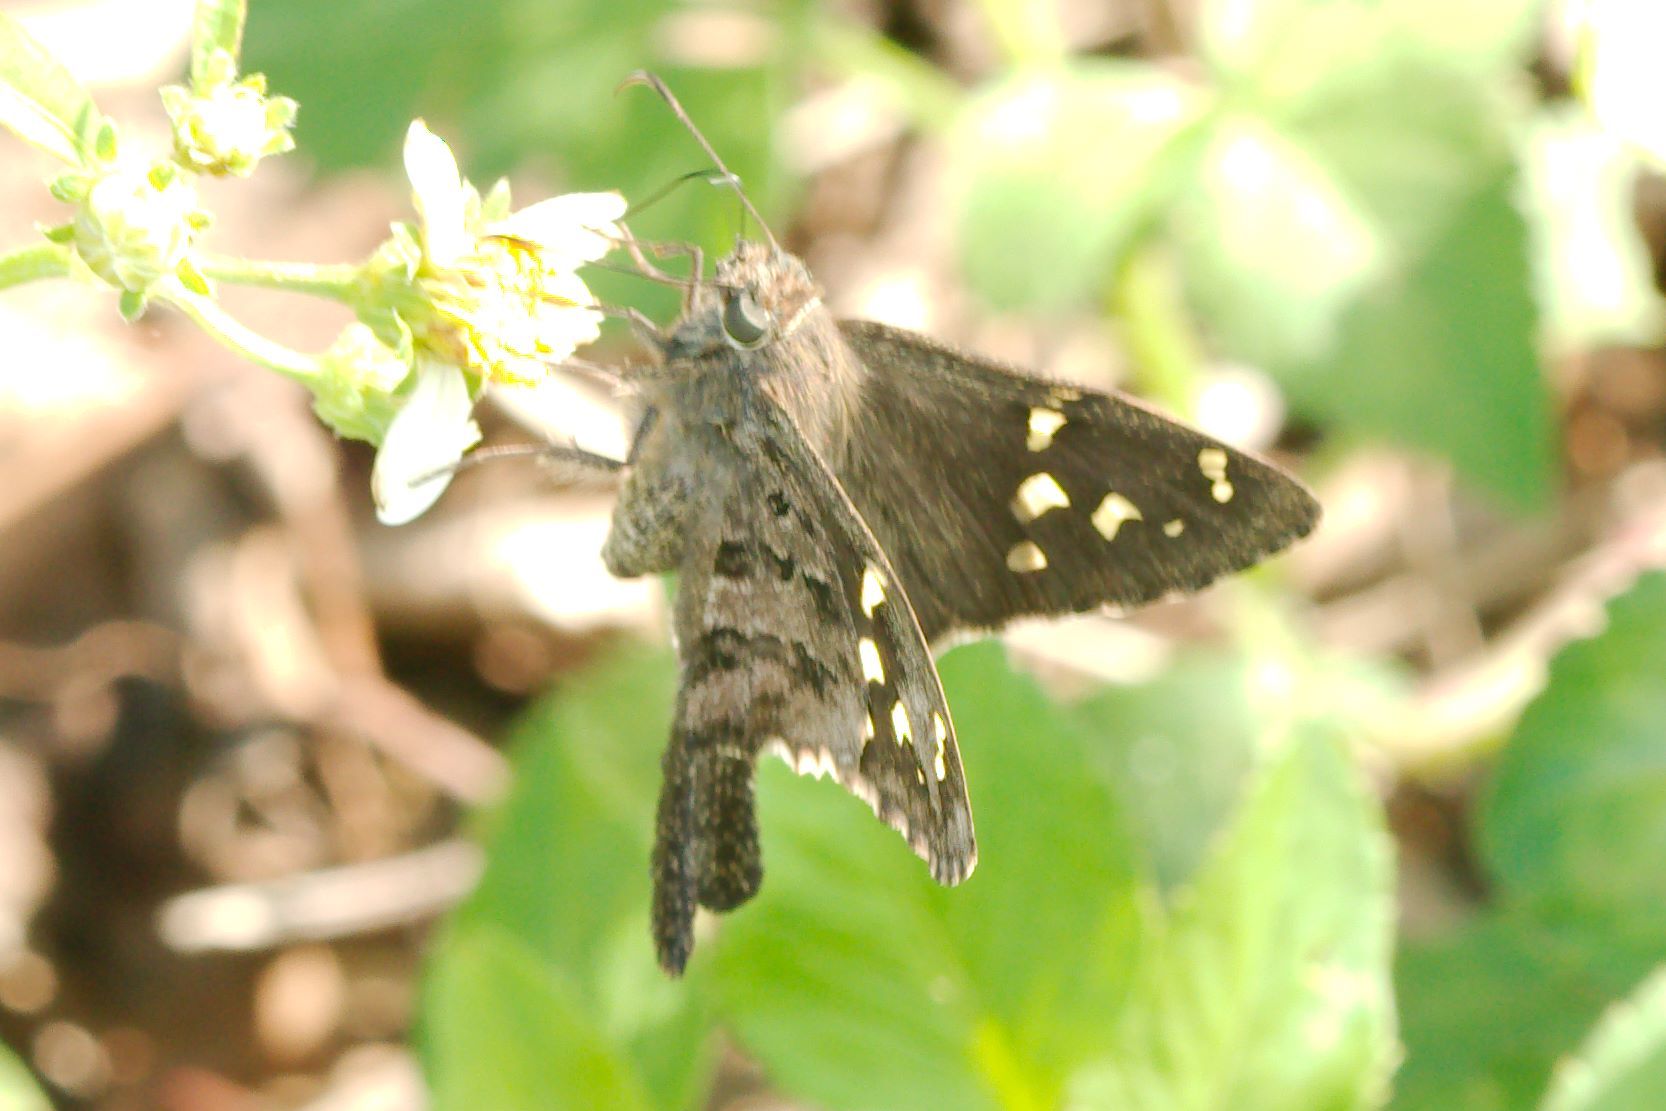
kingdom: Animalia
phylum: Arthropoda
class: Insecta
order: Lepidoptera
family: Hesperiidae
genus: Thorybes
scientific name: Thorybes
